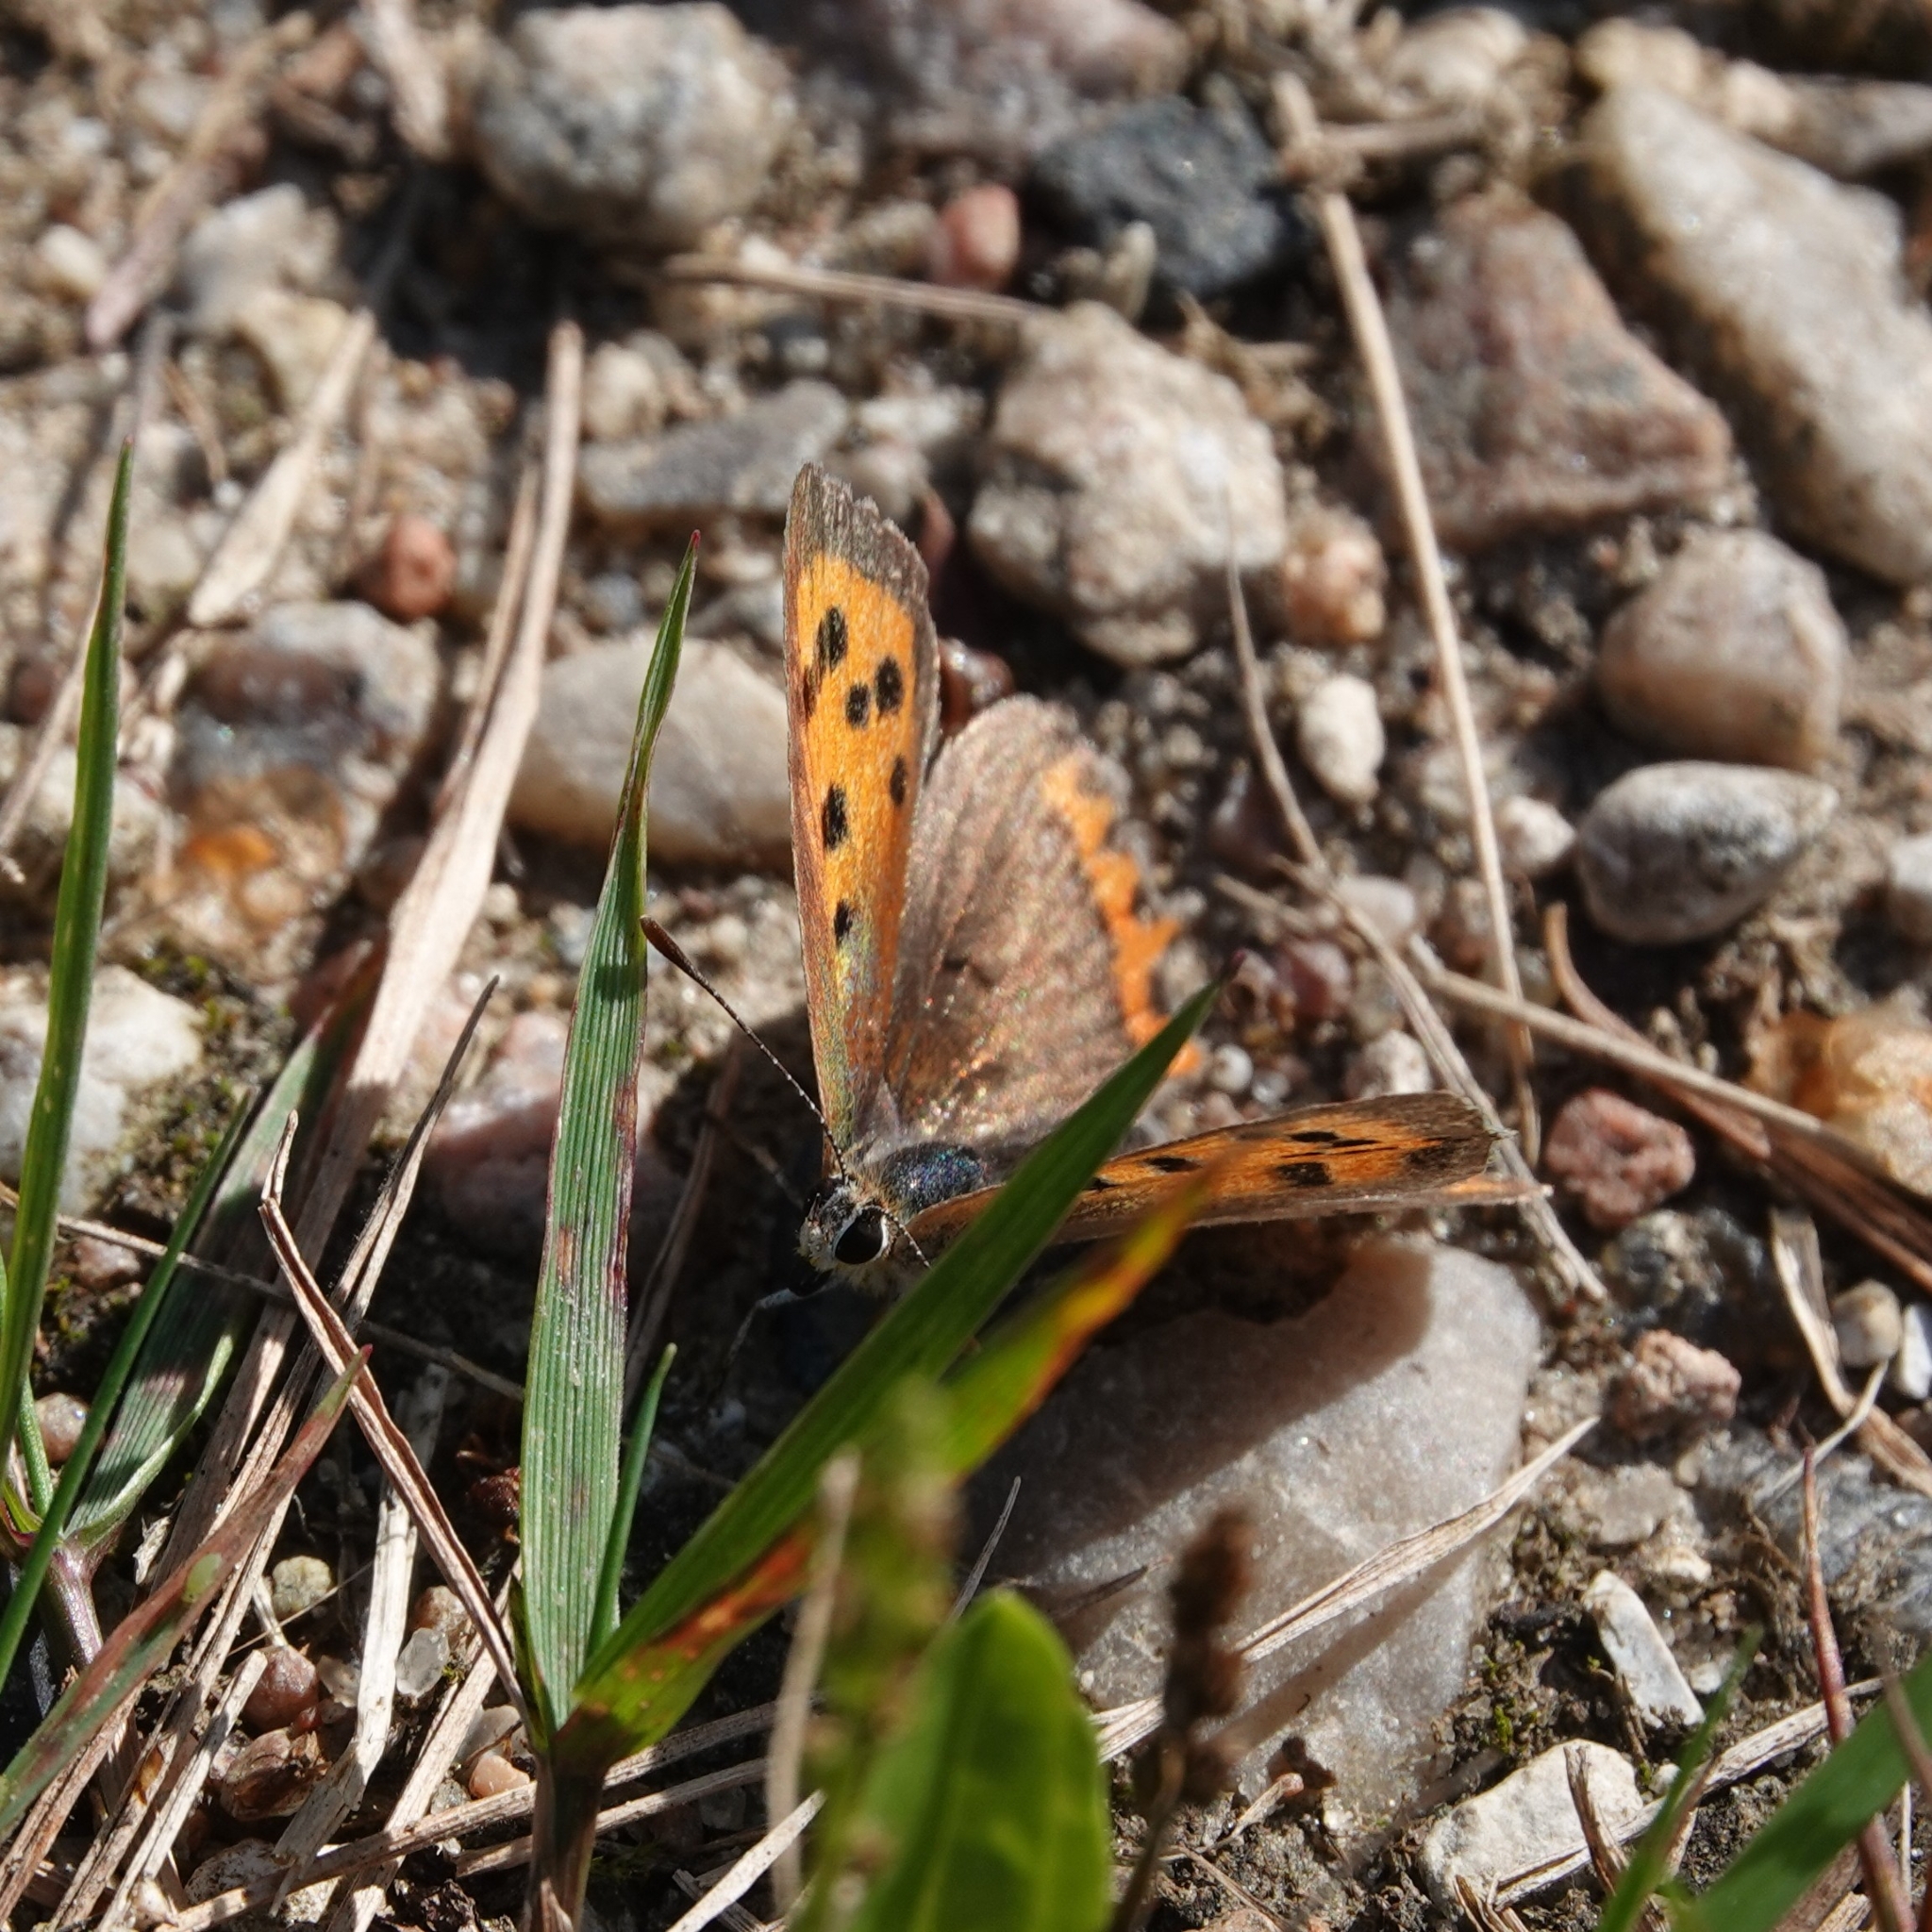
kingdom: Animalia
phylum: Arthropoda
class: Insecta
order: Lepidoptera
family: Lycaenidae
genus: Lycaena
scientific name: Lycaena phlaeas
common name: Small copper
